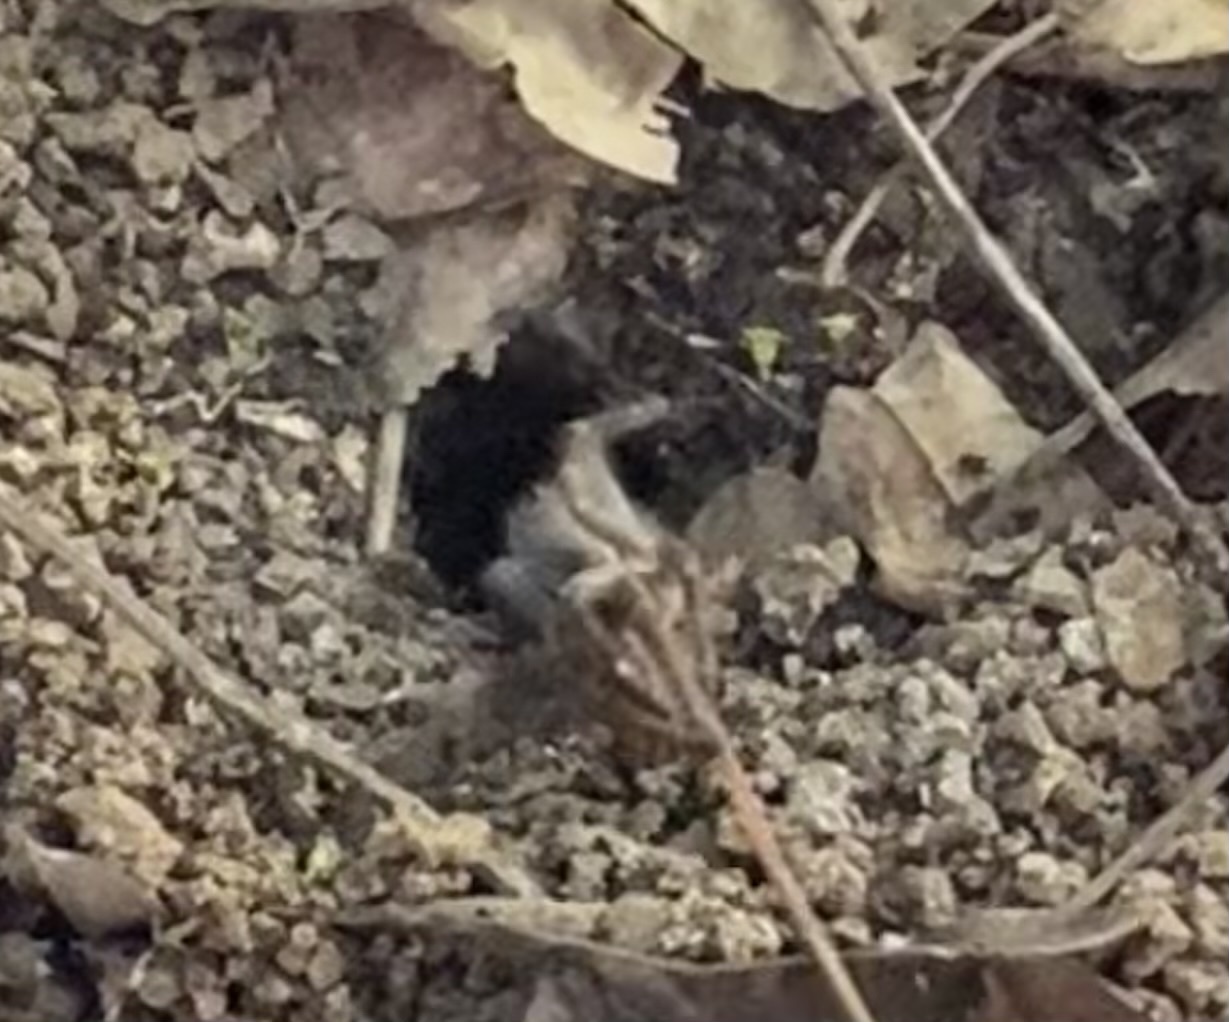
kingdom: Animalia
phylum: Arthropoda
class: Arachnida
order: Araneae
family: Theraphosidae
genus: Cyrtopholis
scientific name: Cyrtopholis femoralis
